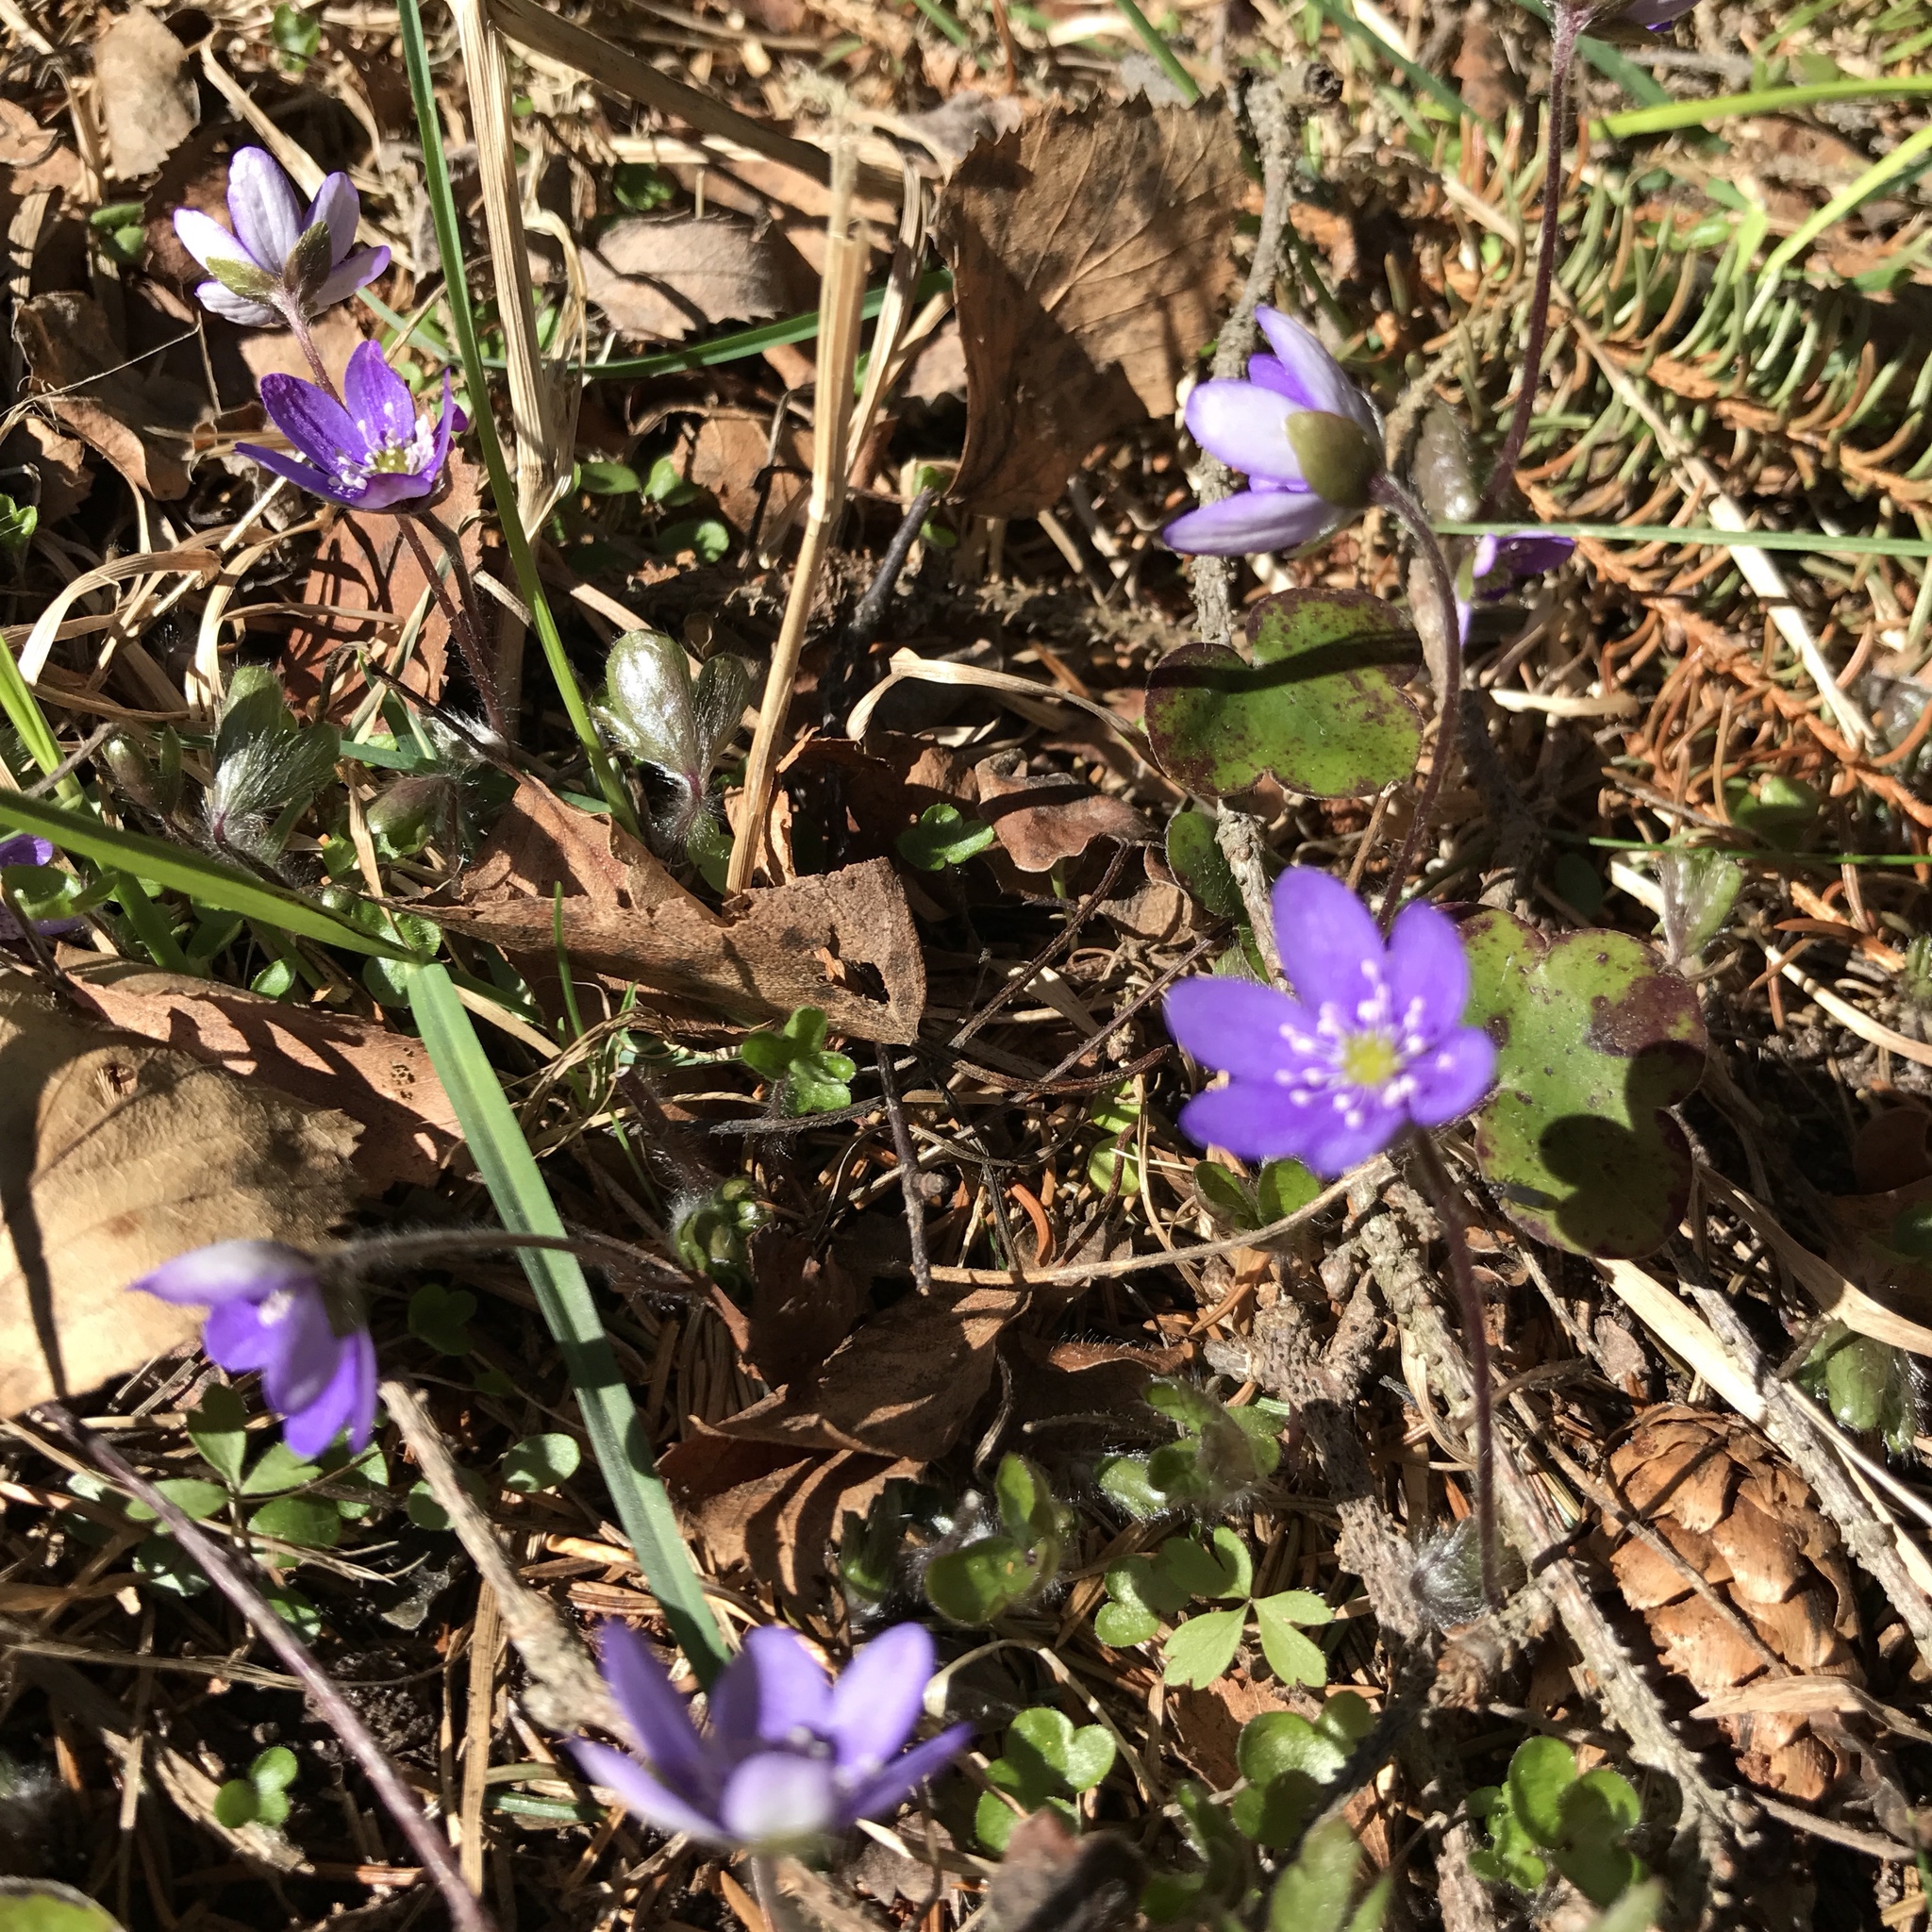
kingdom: Plantae
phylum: Tracheophyta
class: Magnoliopsida
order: Ranunculales
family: Ranunculaceae
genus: Hepatica
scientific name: Hepatica nobilis
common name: Liverleaf
